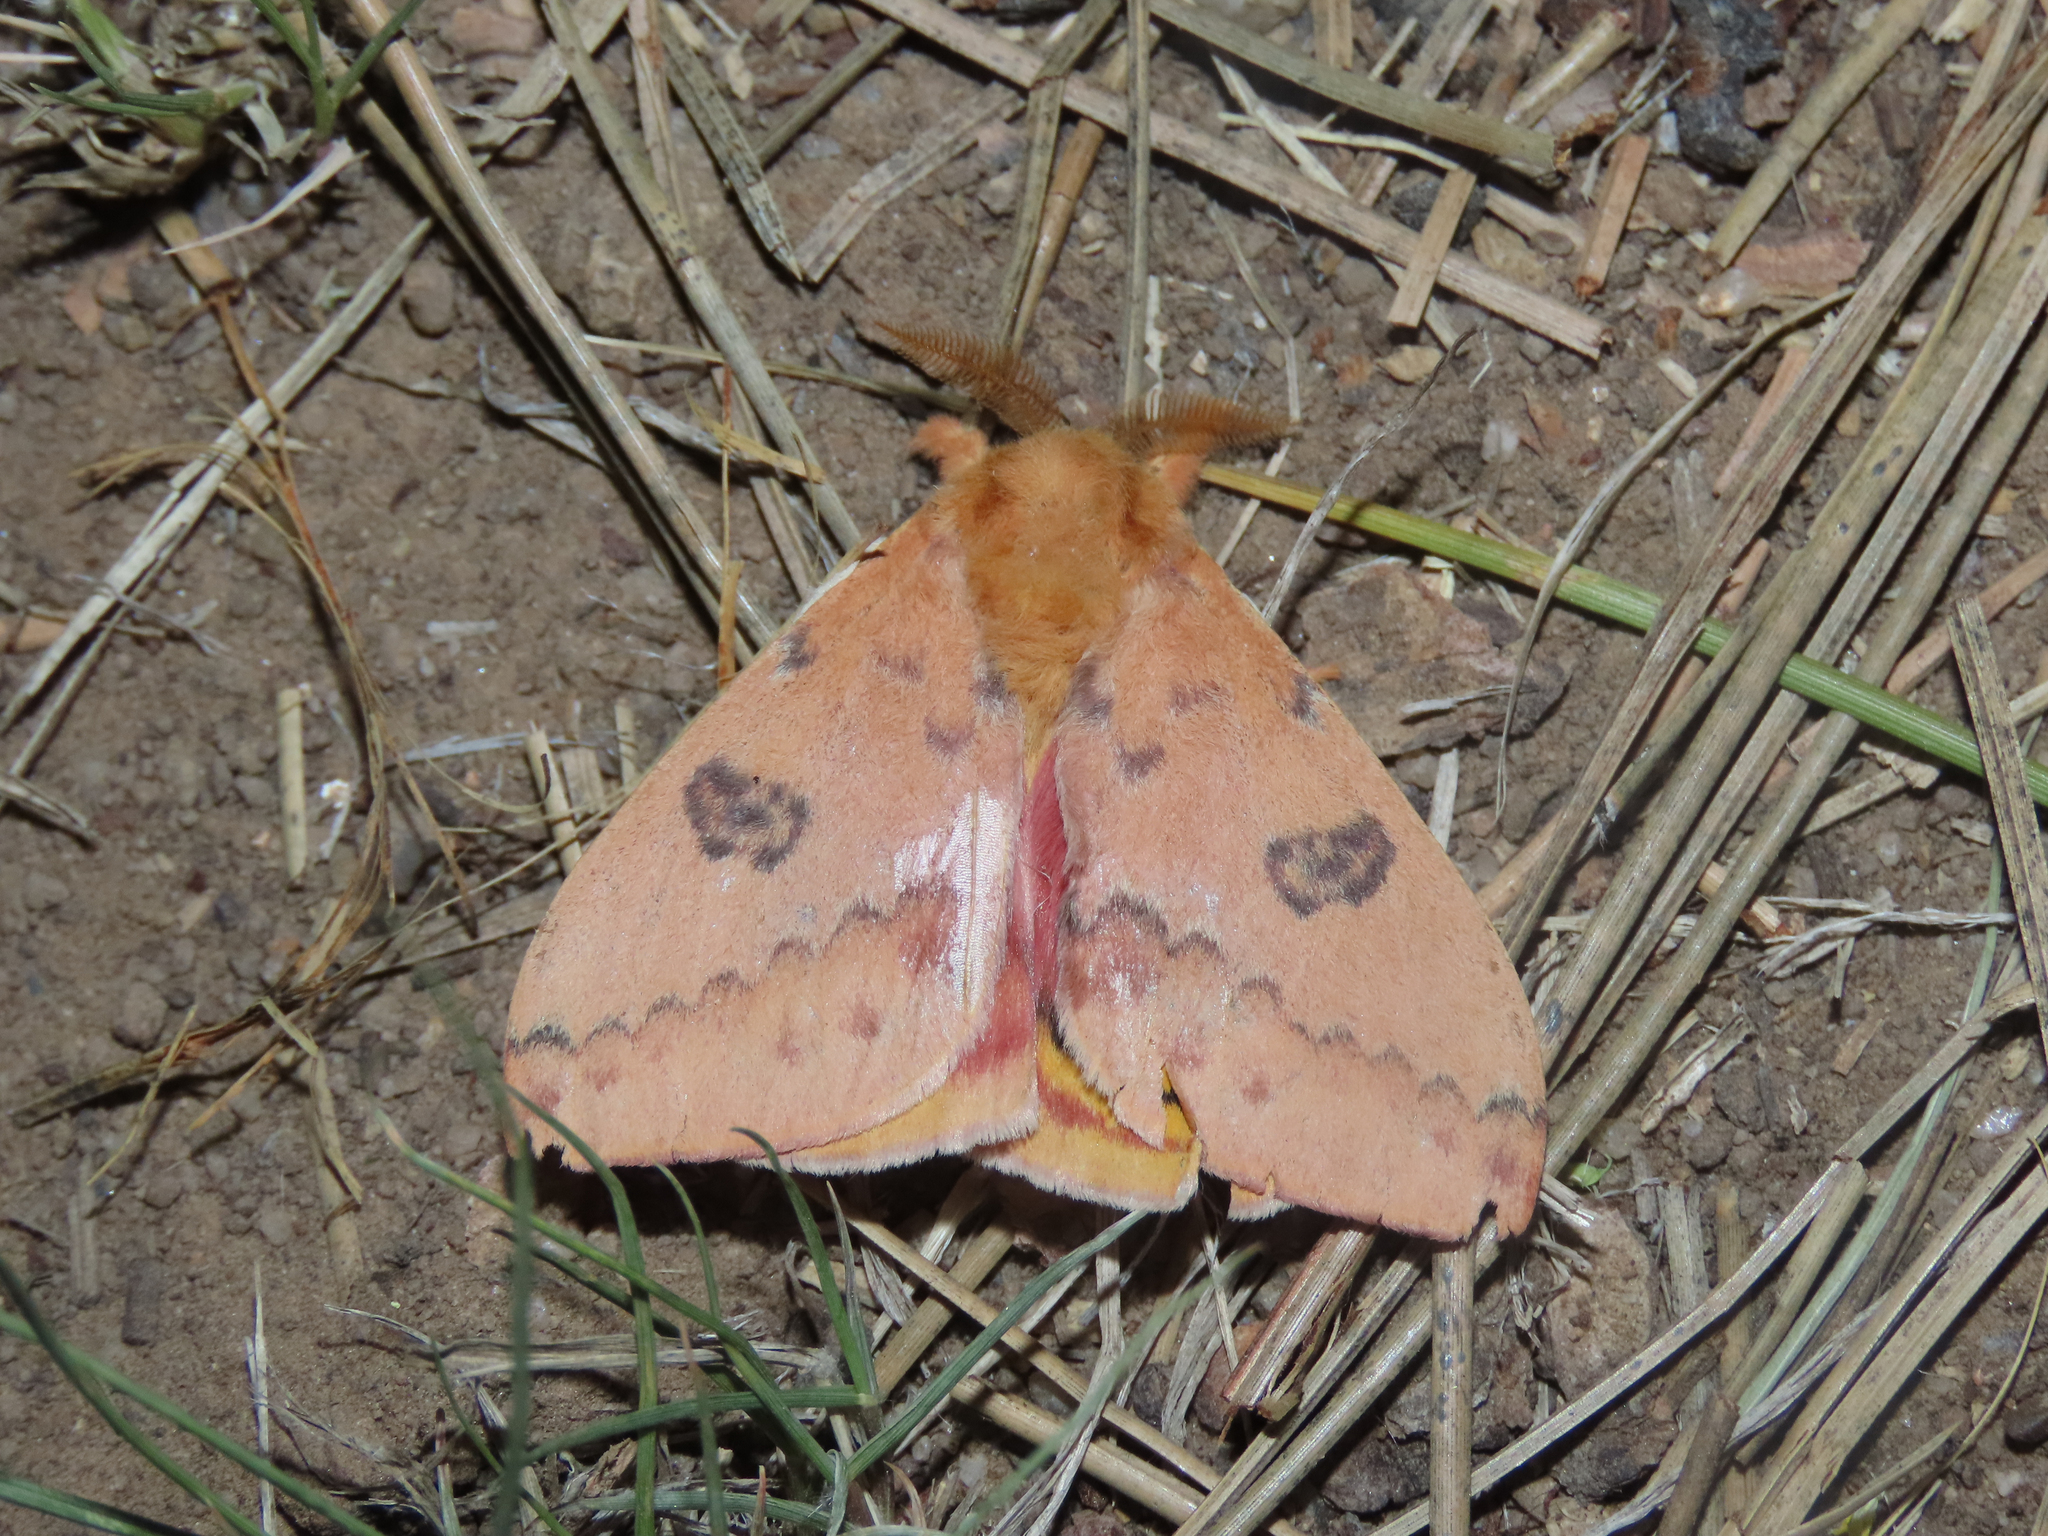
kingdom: Animalia
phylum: Arthropoda
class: Insecta
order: Lepidoptera
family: Saturniidae
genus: Automeris
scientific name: Automeris io
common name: Io moth
